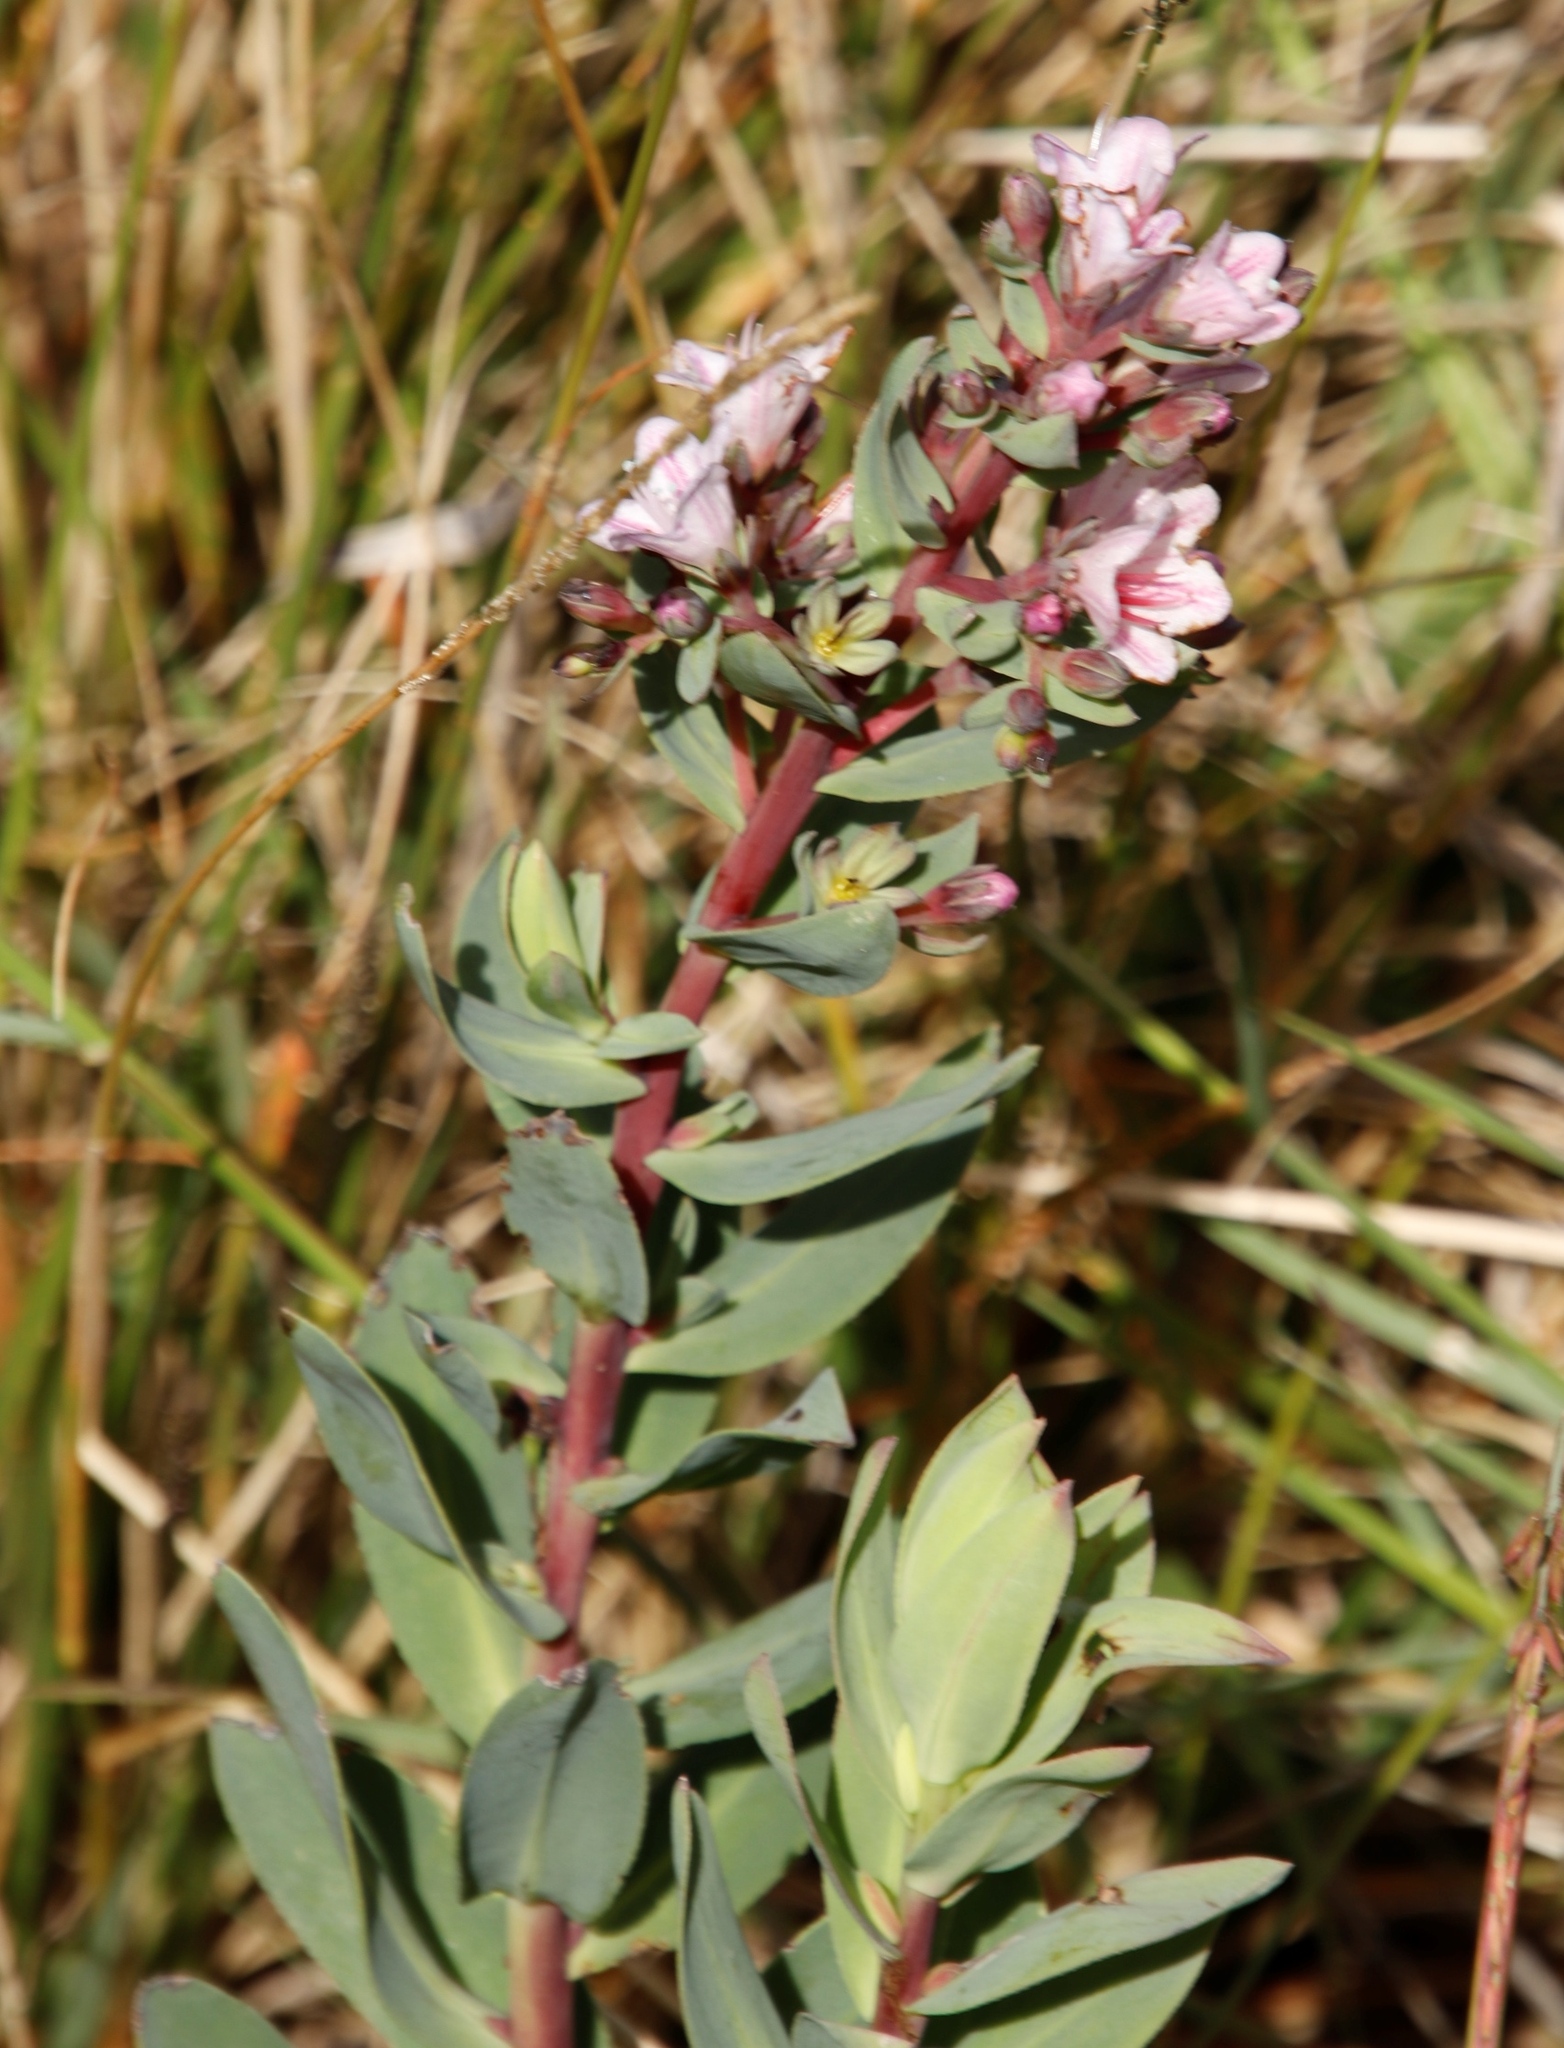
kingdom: Plantae
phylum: Tracheophyta
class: Magnoliopsida
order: Boraginales
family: Boraginaceae
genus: Lobostemon
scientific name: Lobostemon glaucophyllus
